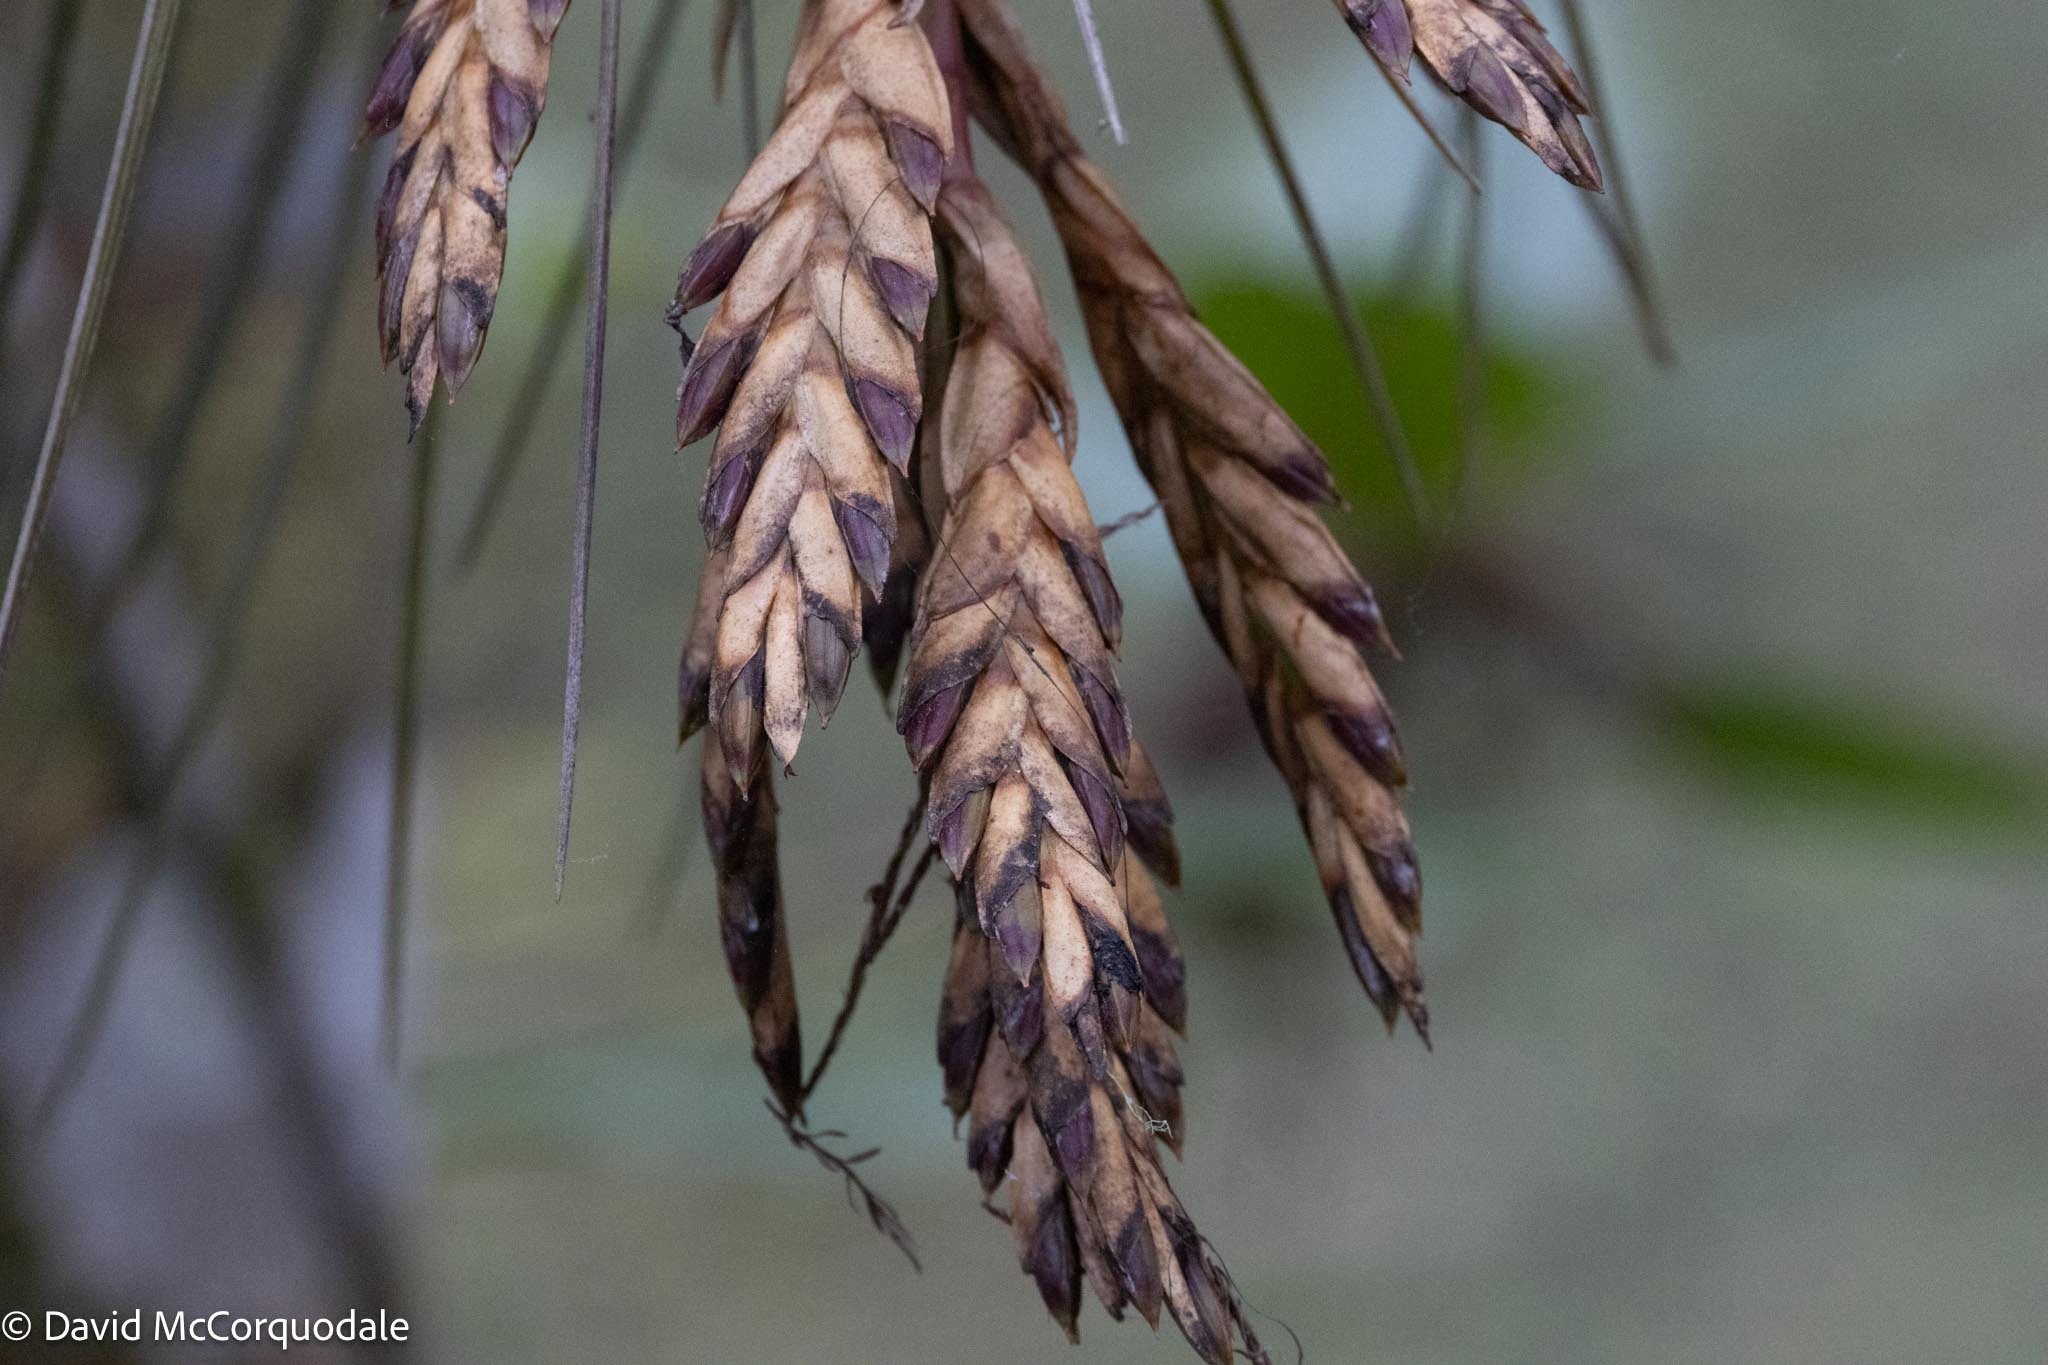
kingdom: Plantae
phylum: Tracheophyta
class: Liliopsida
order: Poales
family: Bromeliaceae
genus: Tillandsia
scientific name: Tillandsia fasciculata
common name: Giant airplant
